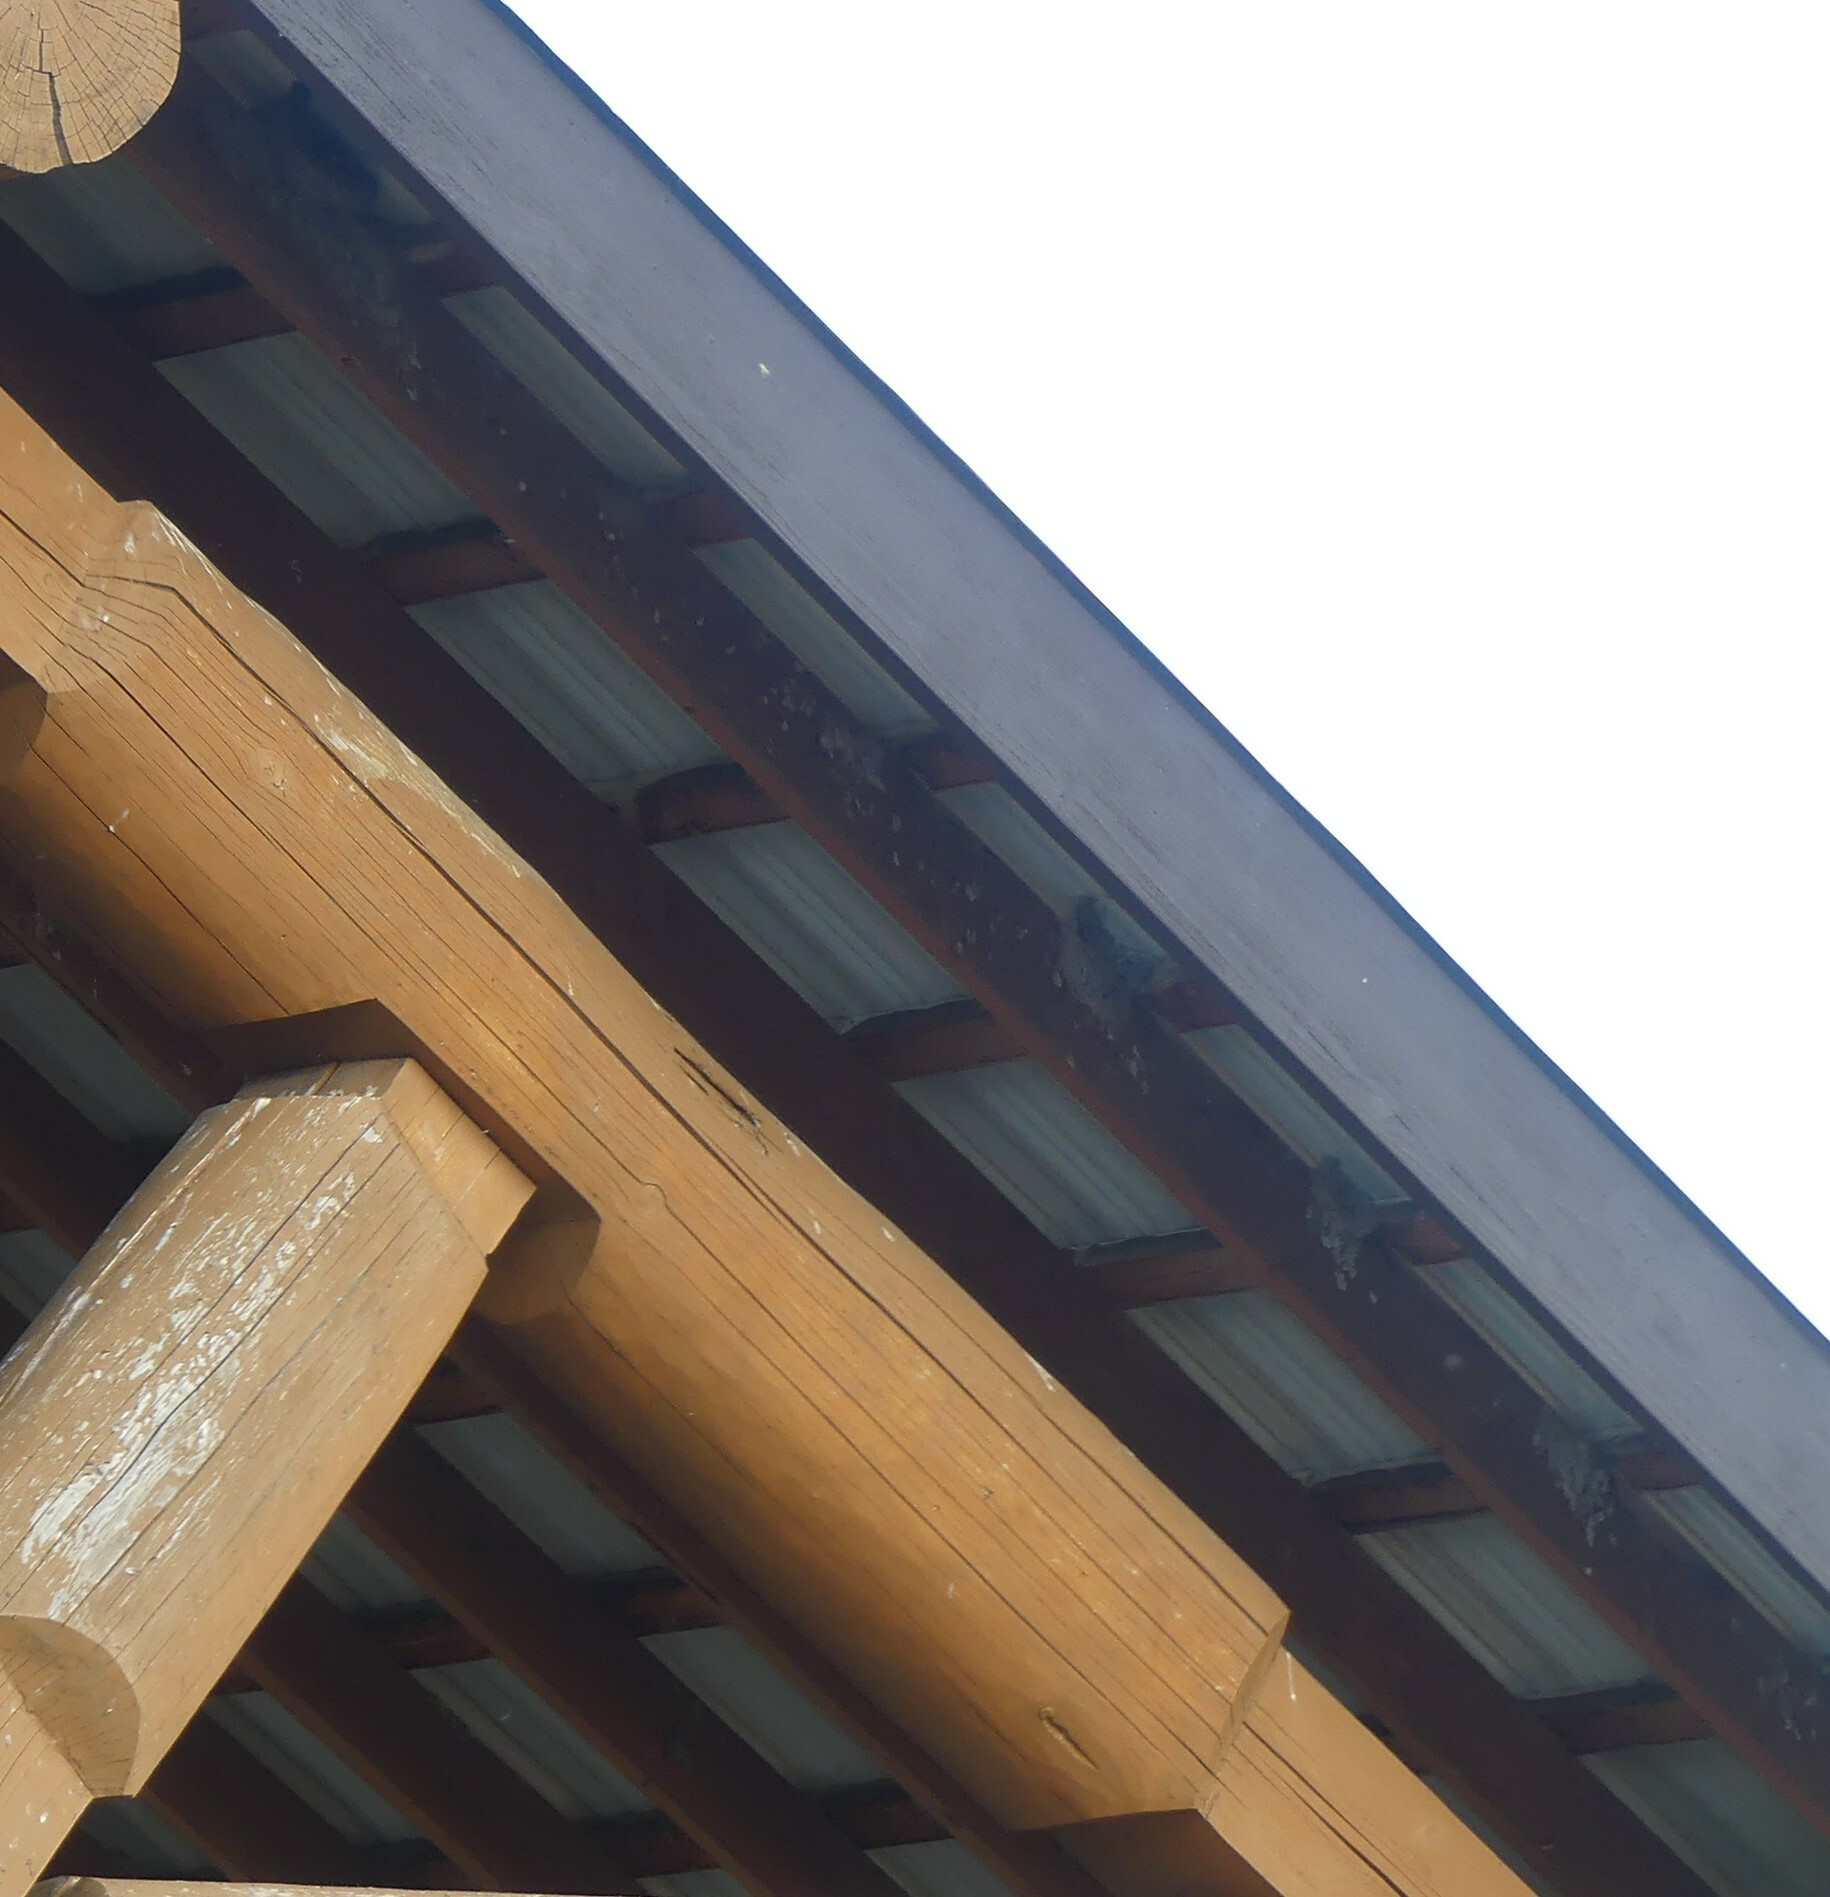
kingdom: Animalia
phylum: Chordata
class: Aves
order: Passeriformes
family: Hirundinidae
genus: Petrochelidon
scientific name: Petrochelidon pyrrhonota
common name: American cliff swallow
